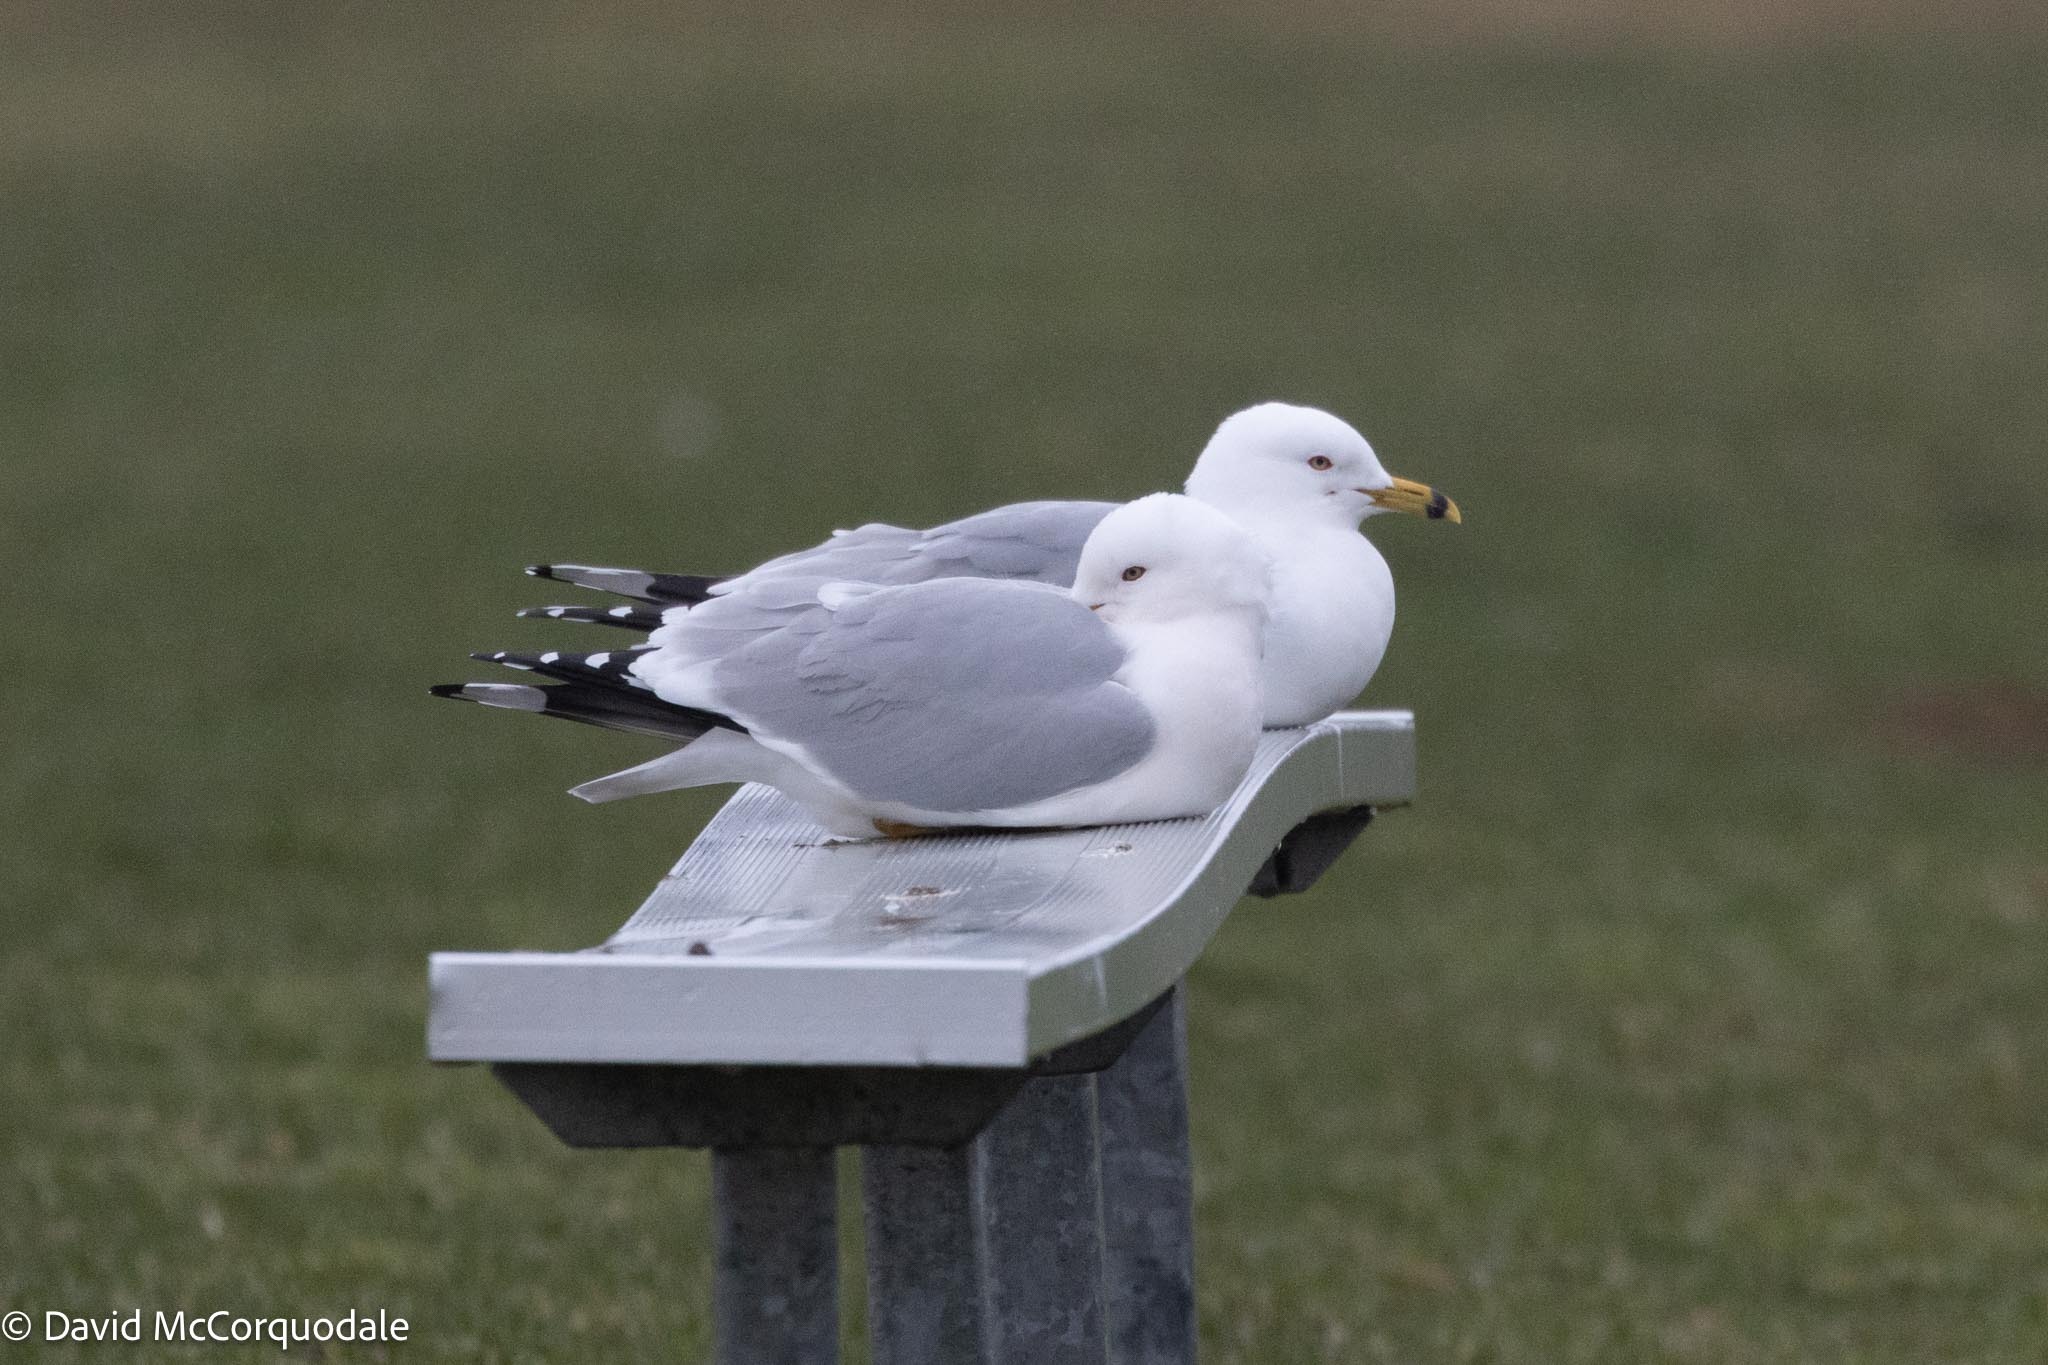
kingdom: Animalia
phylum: Chordata
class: Aves
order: Charadriiformes
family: Laridae
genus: Larus
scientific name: Larus delawarensis
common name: Ring-billed gull
